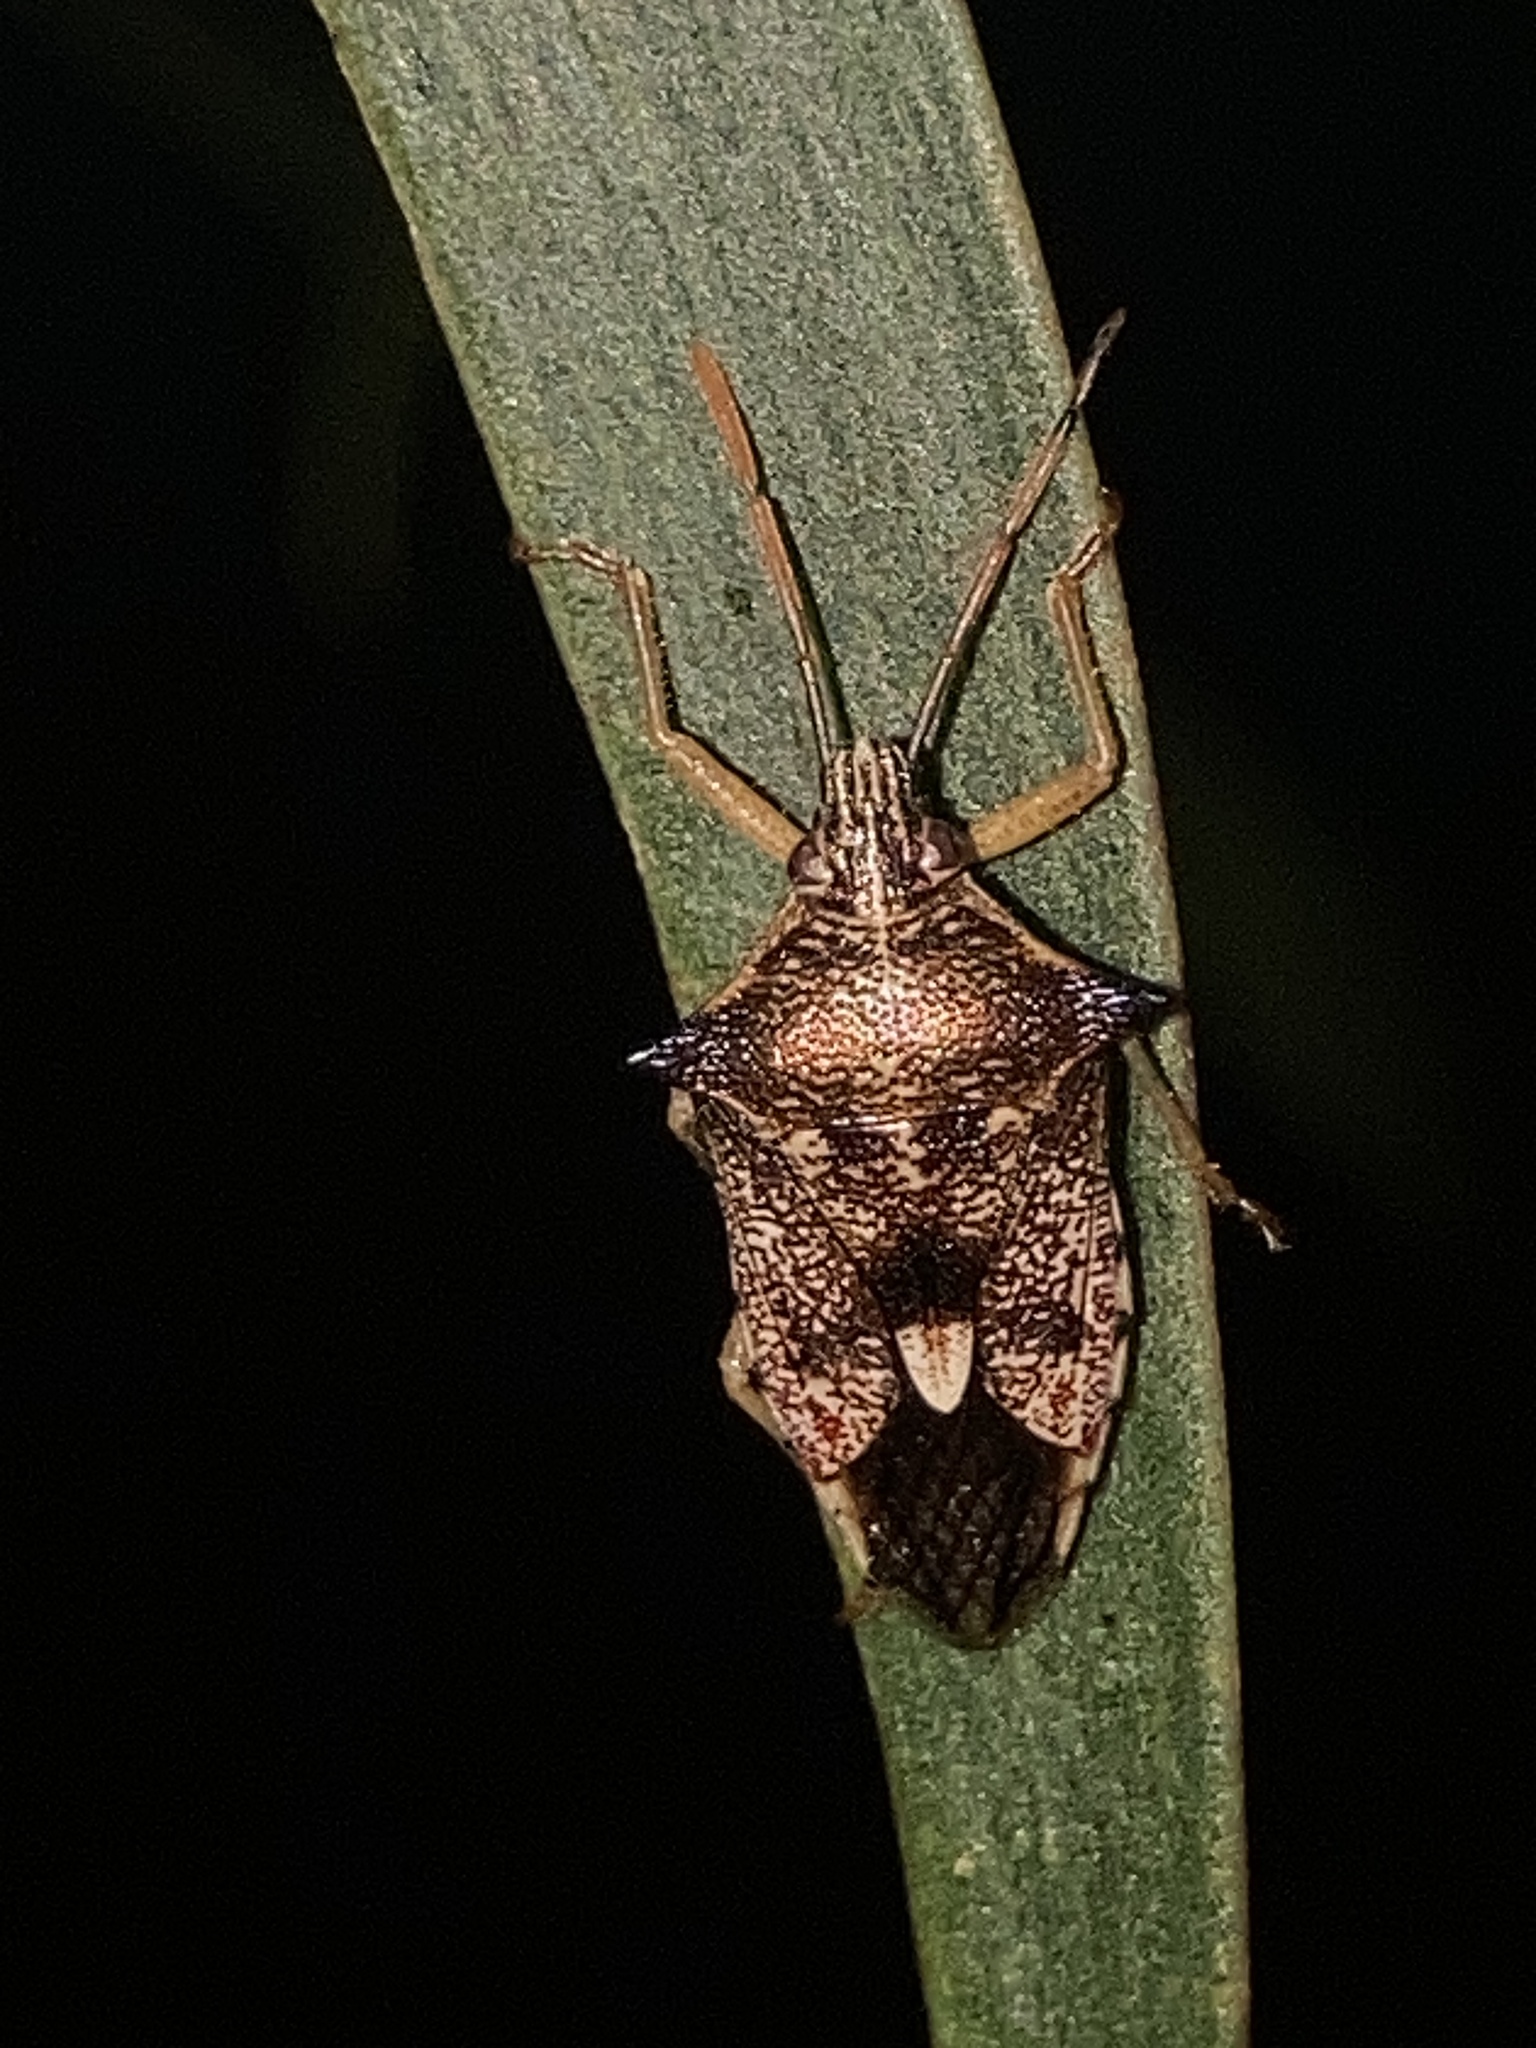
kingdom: Animalia
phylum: Arthropoda
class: Insecta
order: Hemiptera
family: Pentatomidae
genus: Oechalia
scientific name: Oechalia schellenbergii
